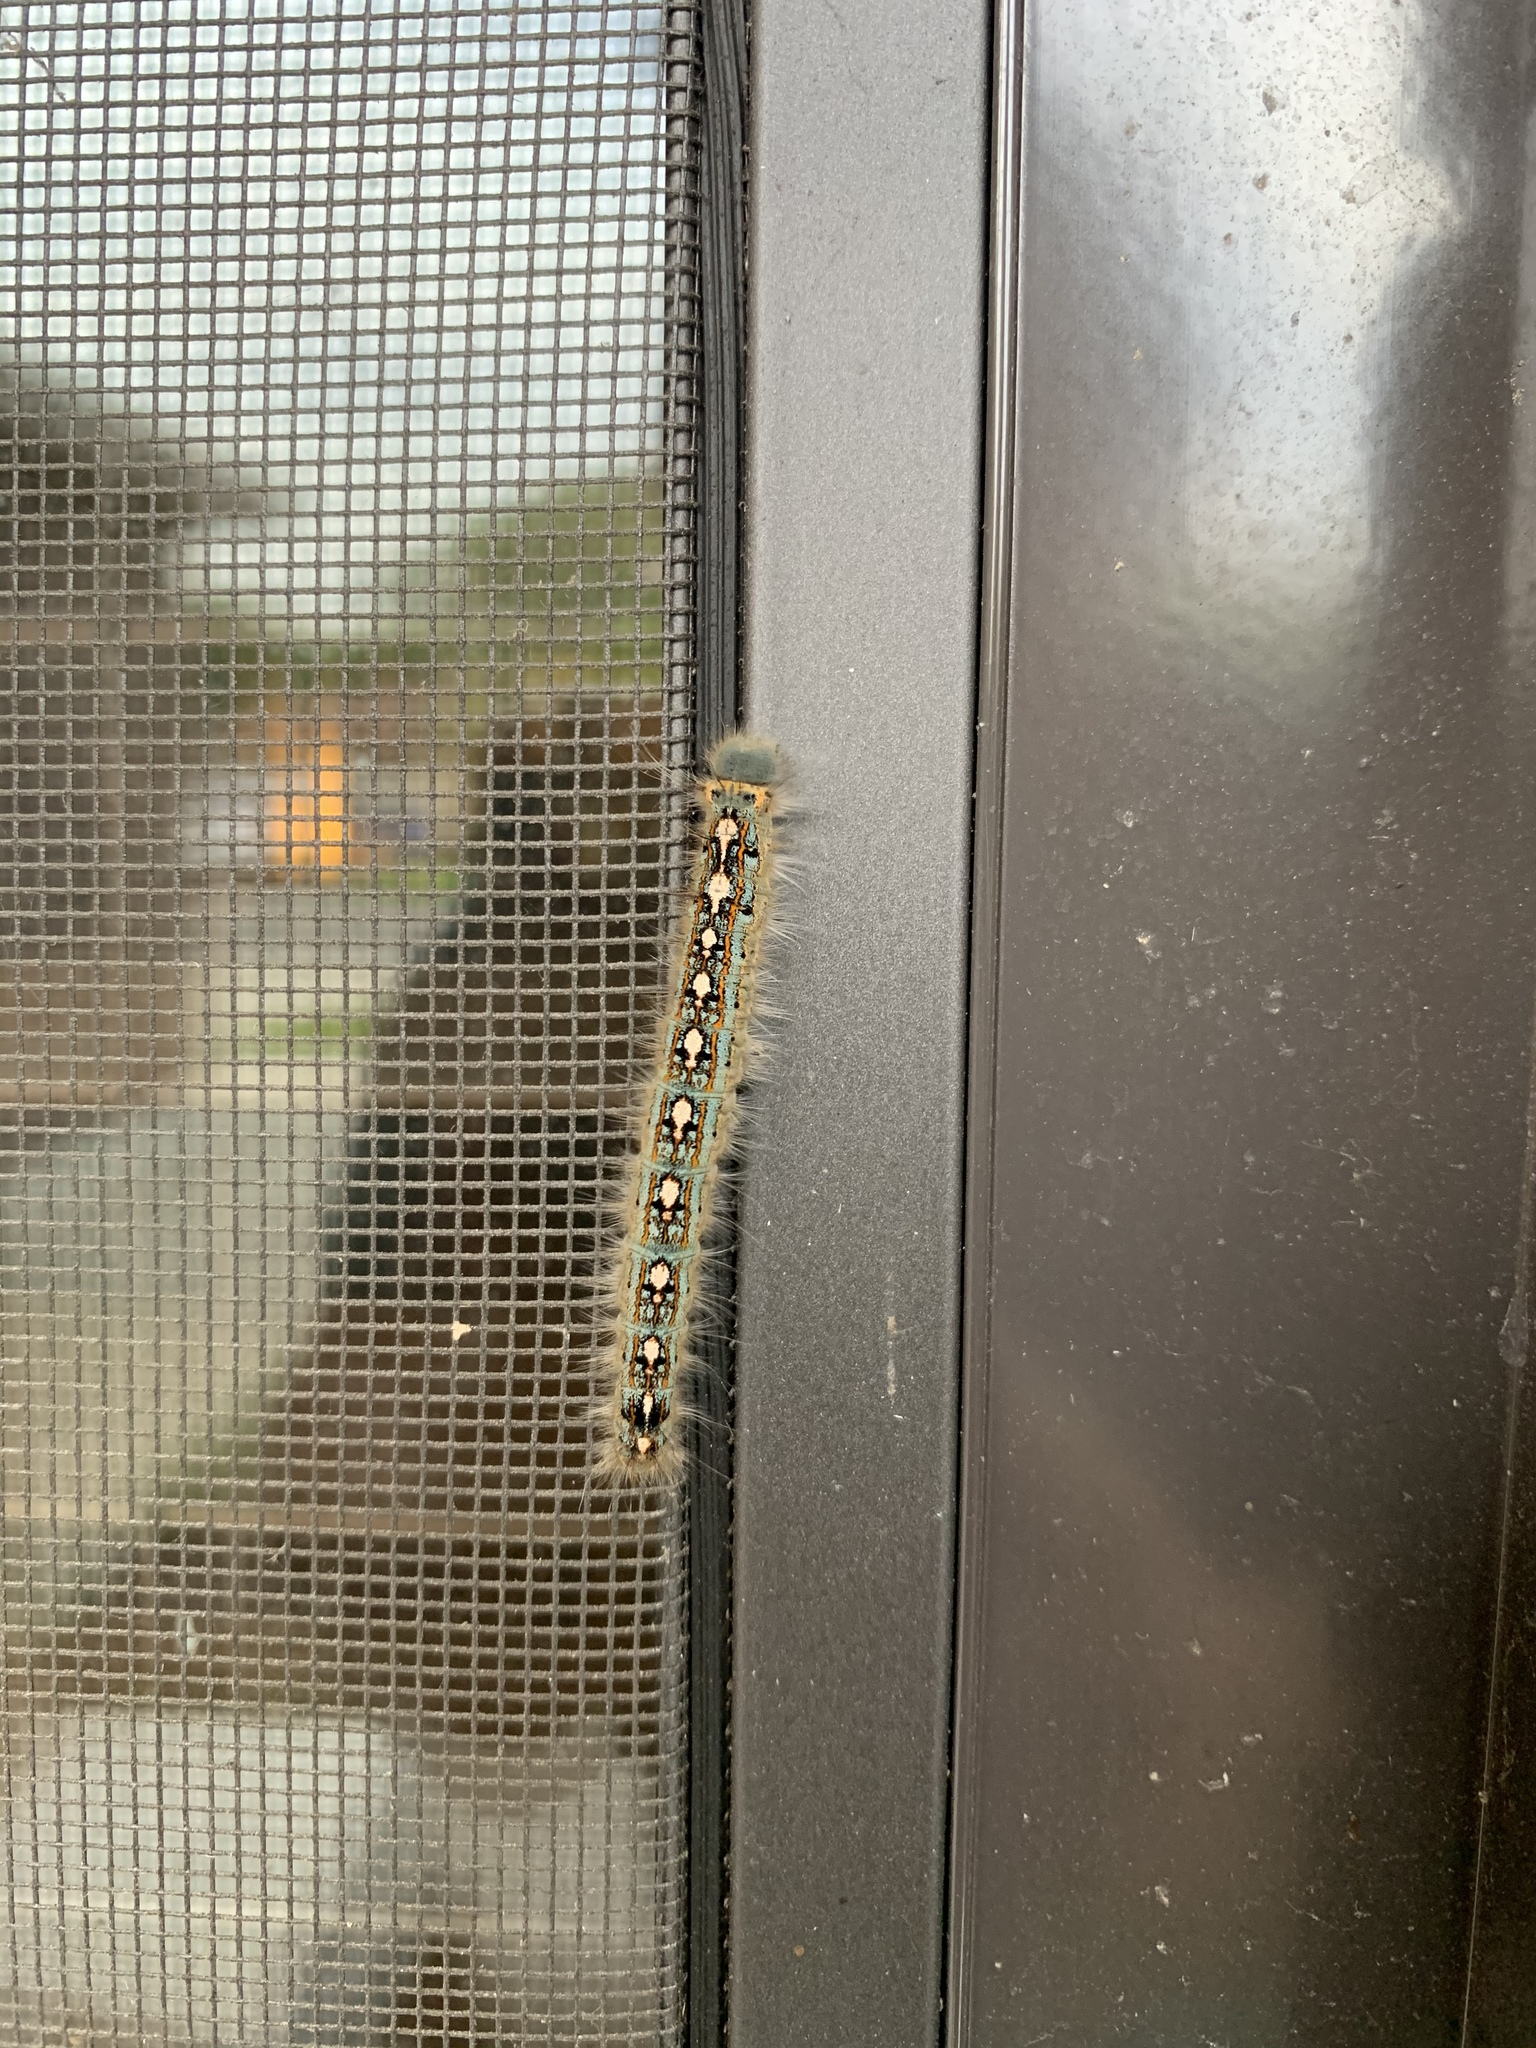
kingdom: Animalia
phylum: Arthropoda
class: Insecta
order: Lepidoptera
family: Lasiocampidae
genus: Malacosoma
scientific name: Malacosoma disstria
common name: Forest tent caterpillar
